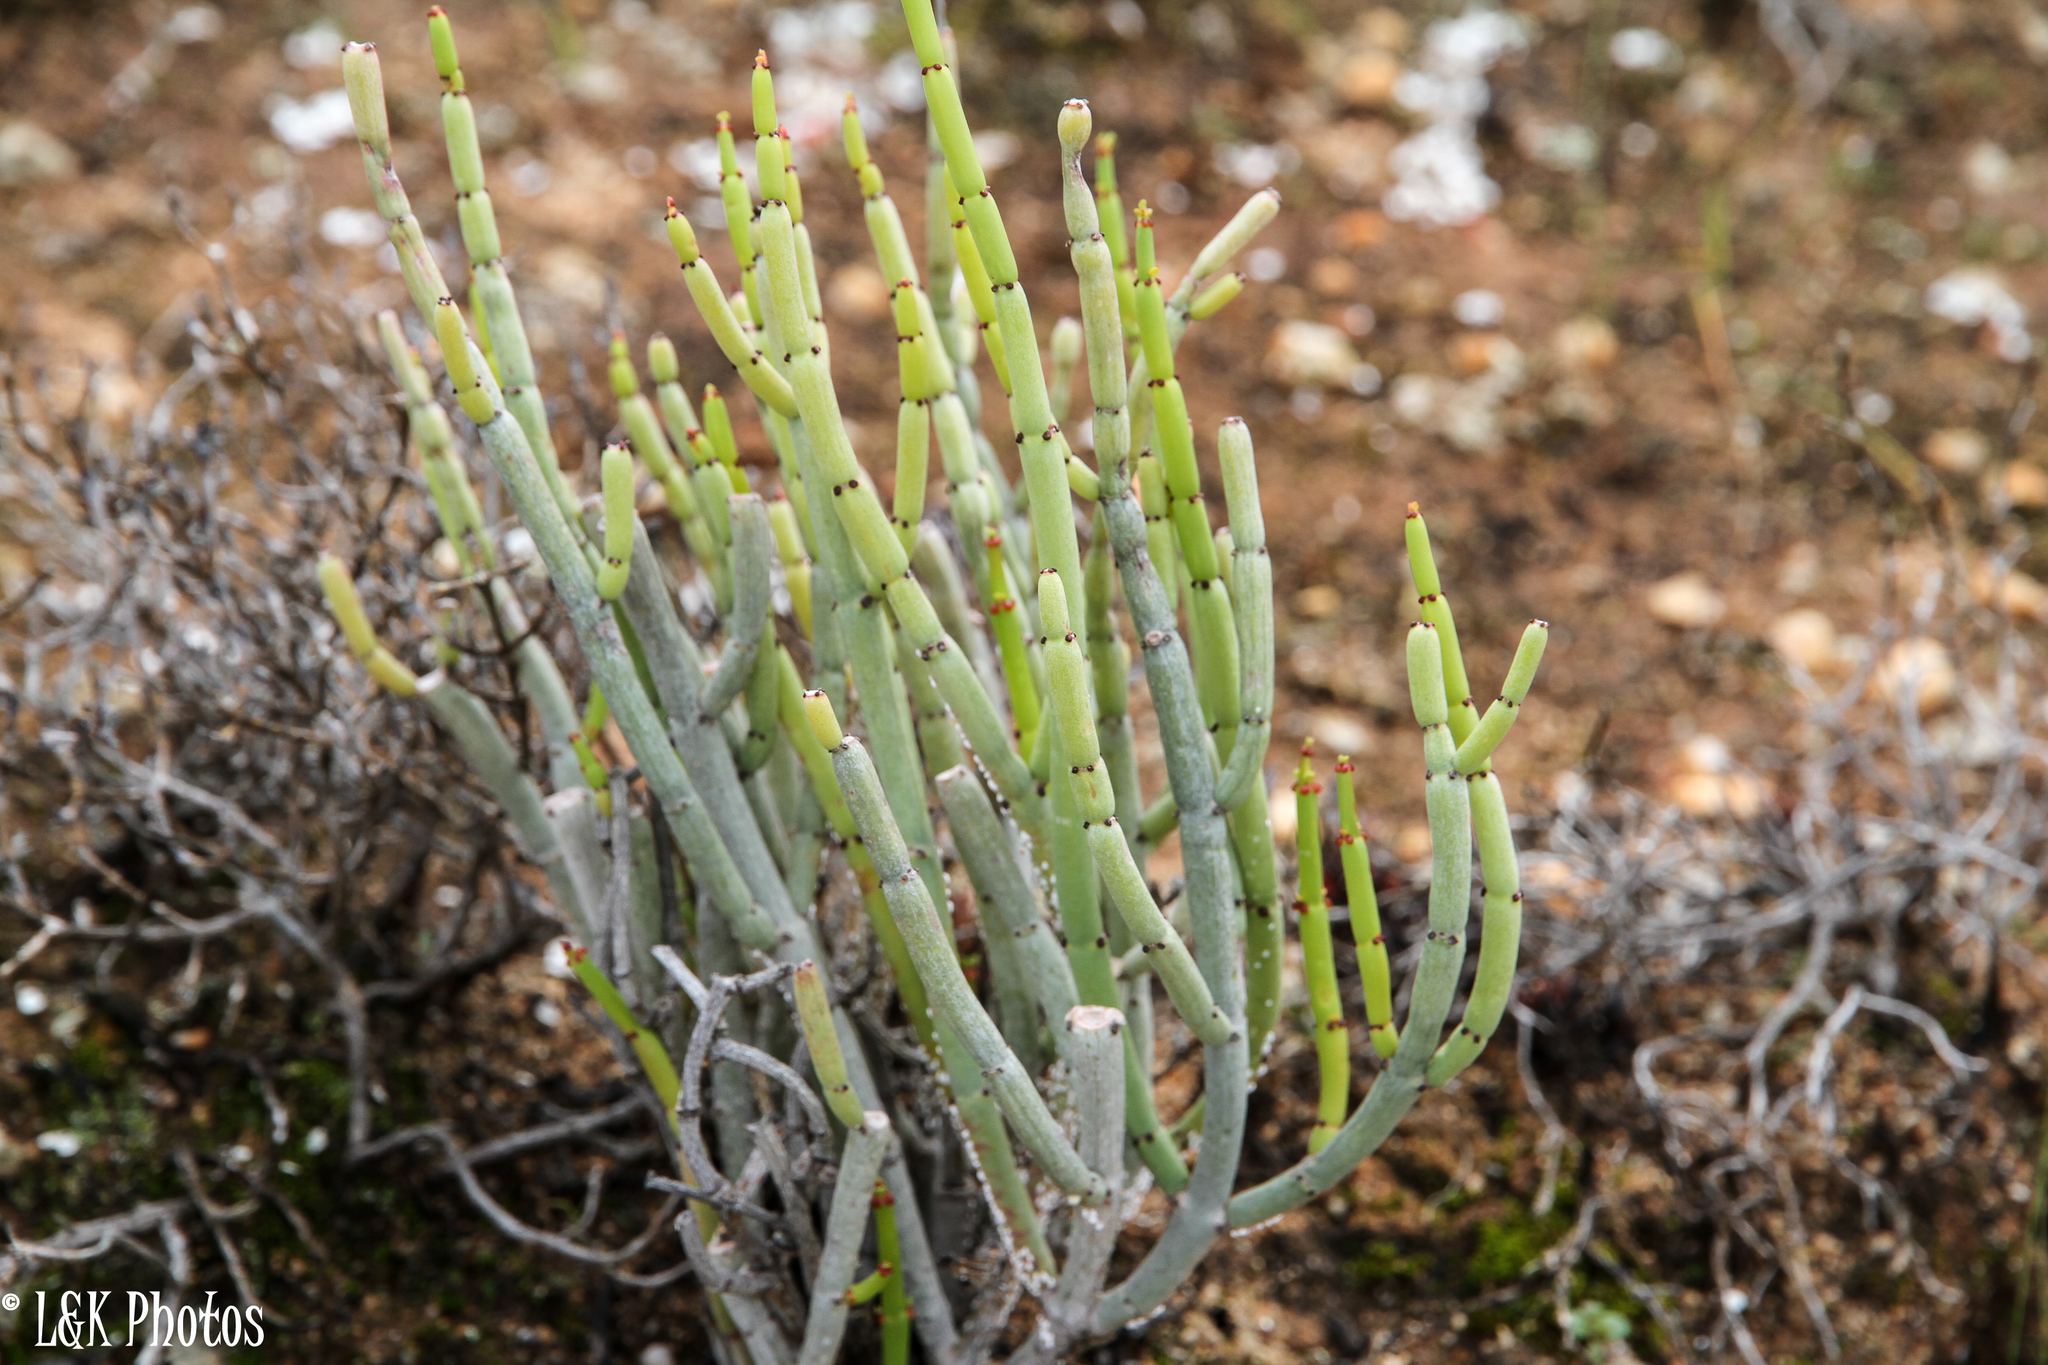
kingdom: Plantae
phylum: Tracheophyta
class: Magnoliopsida
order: Malpighiales
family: Euphorbiaceae
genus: Euphorbia
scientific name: Euphorbia burmanni
